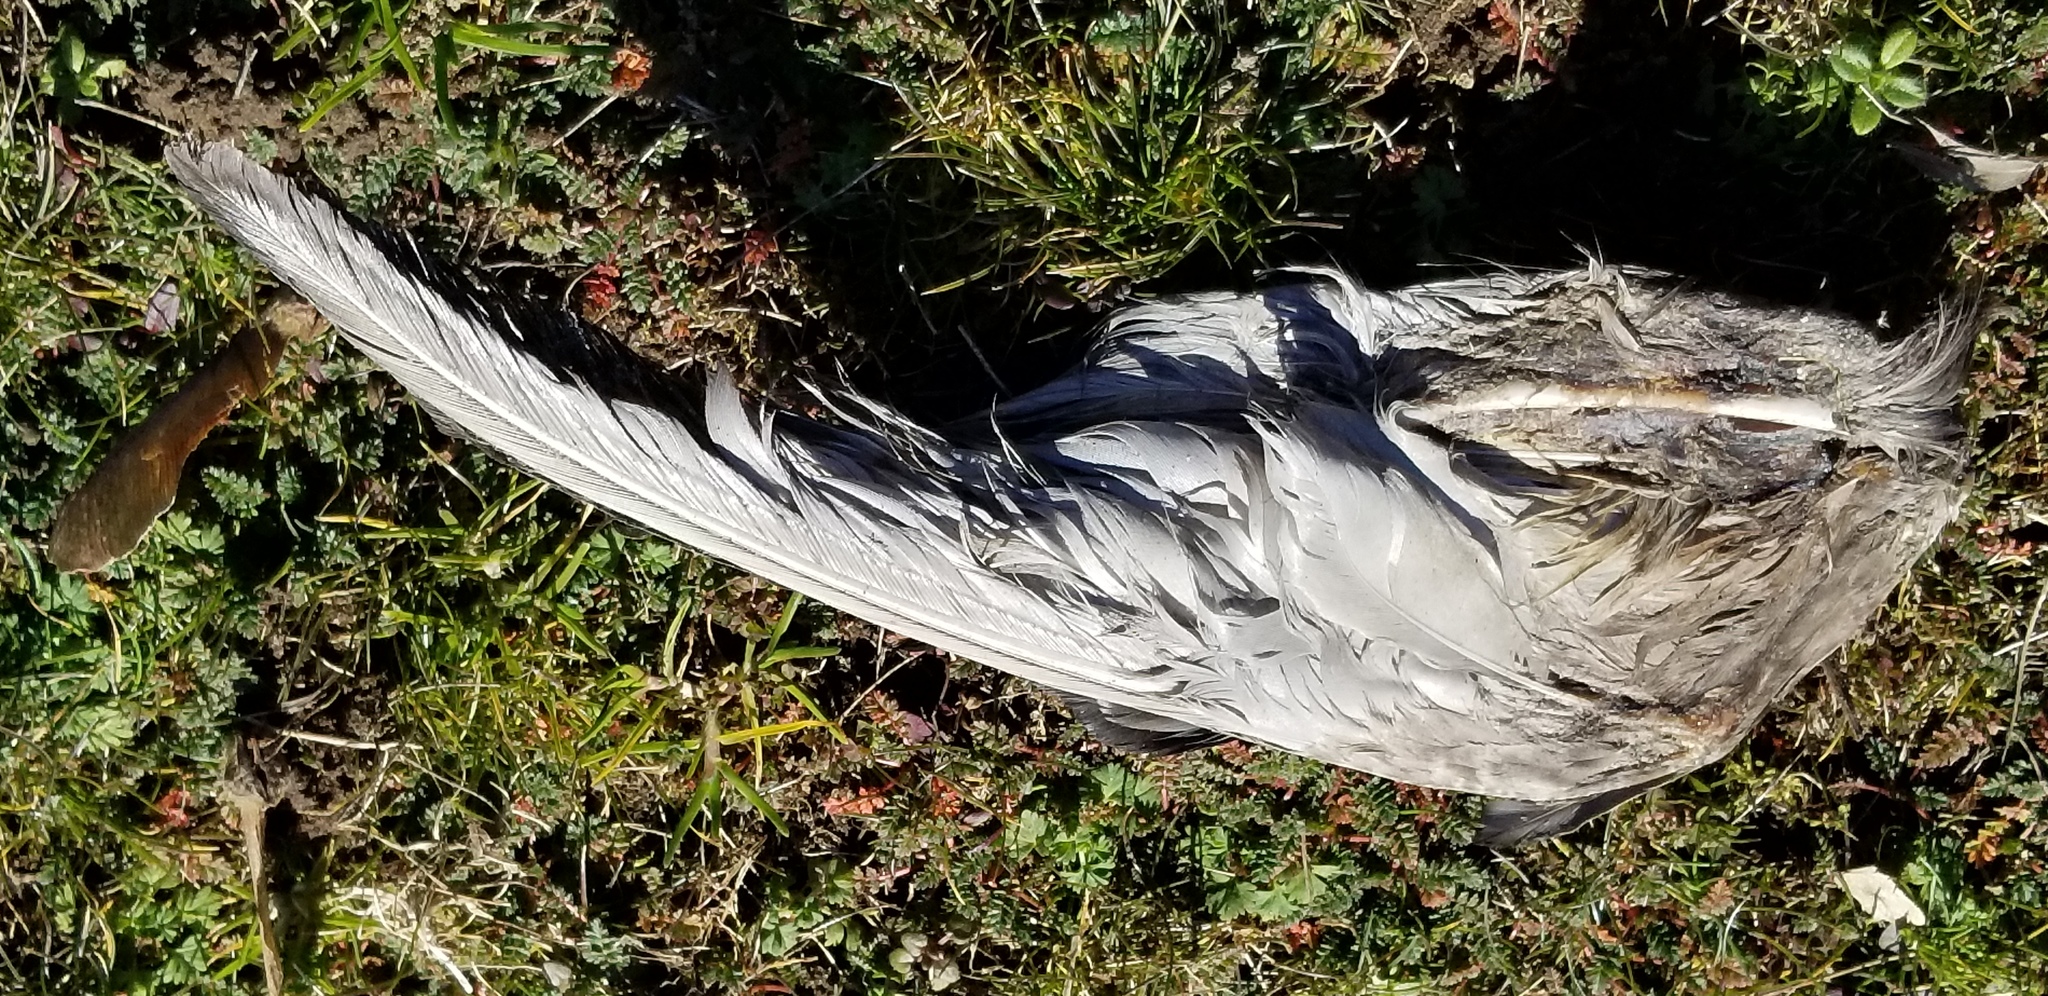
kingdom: Animalia
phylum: Chordata
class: Aves
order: Anseriformes
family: Anatidae
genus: Mareca
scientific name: Mareca americana
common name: American wigeon
